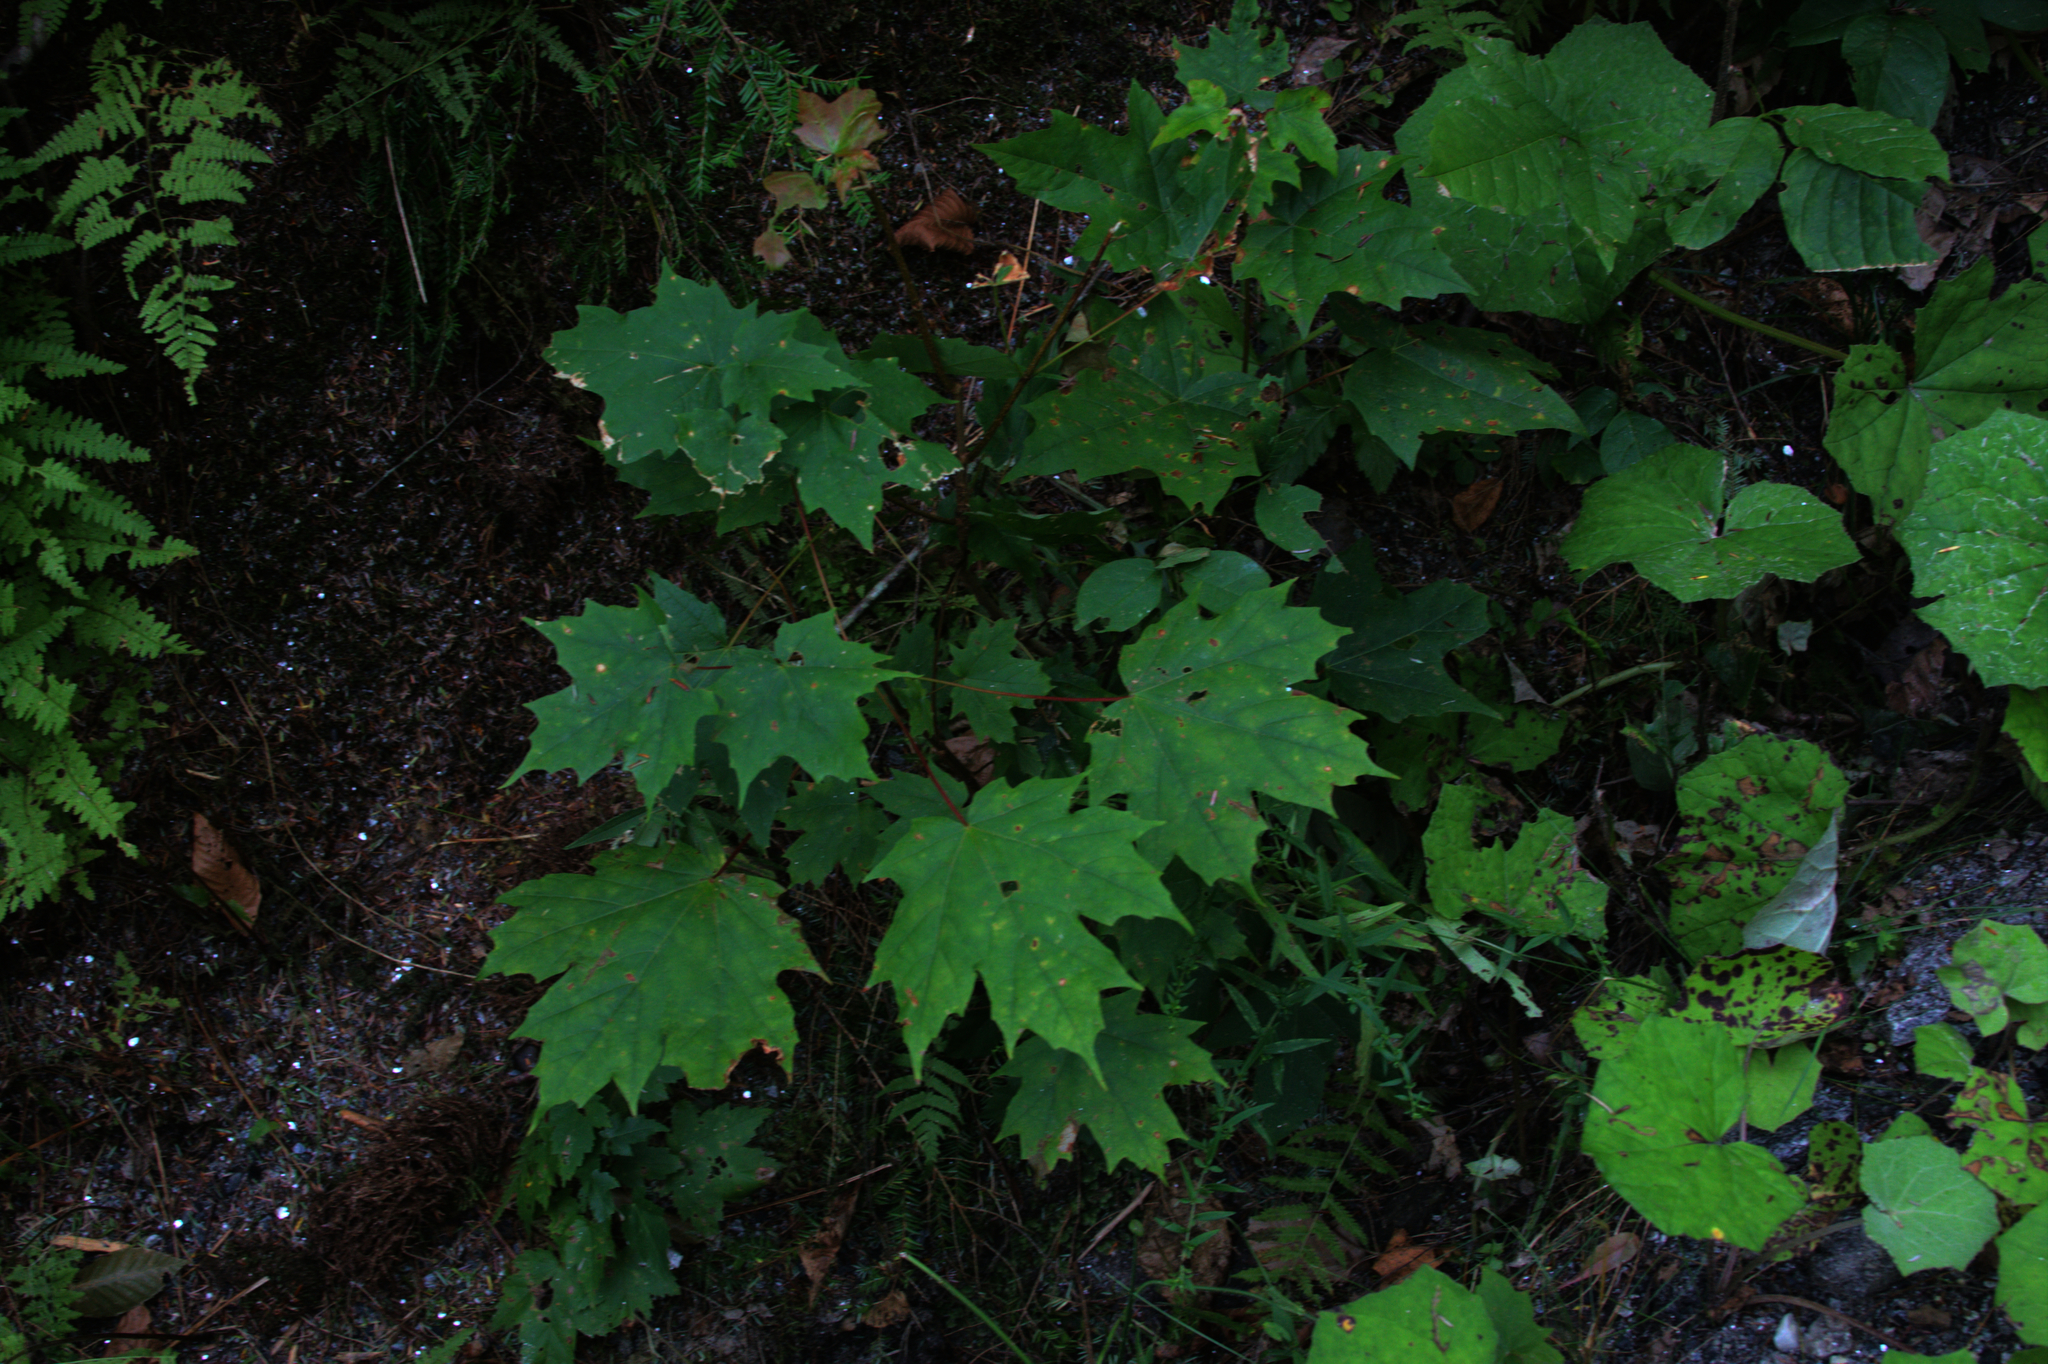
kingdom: Plantae
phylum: Tracheophyta
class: Magnoliopsida
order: Sapindales
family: Sapindaceae
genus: Acer
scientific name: Acer saccharum
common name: Sugar maple
